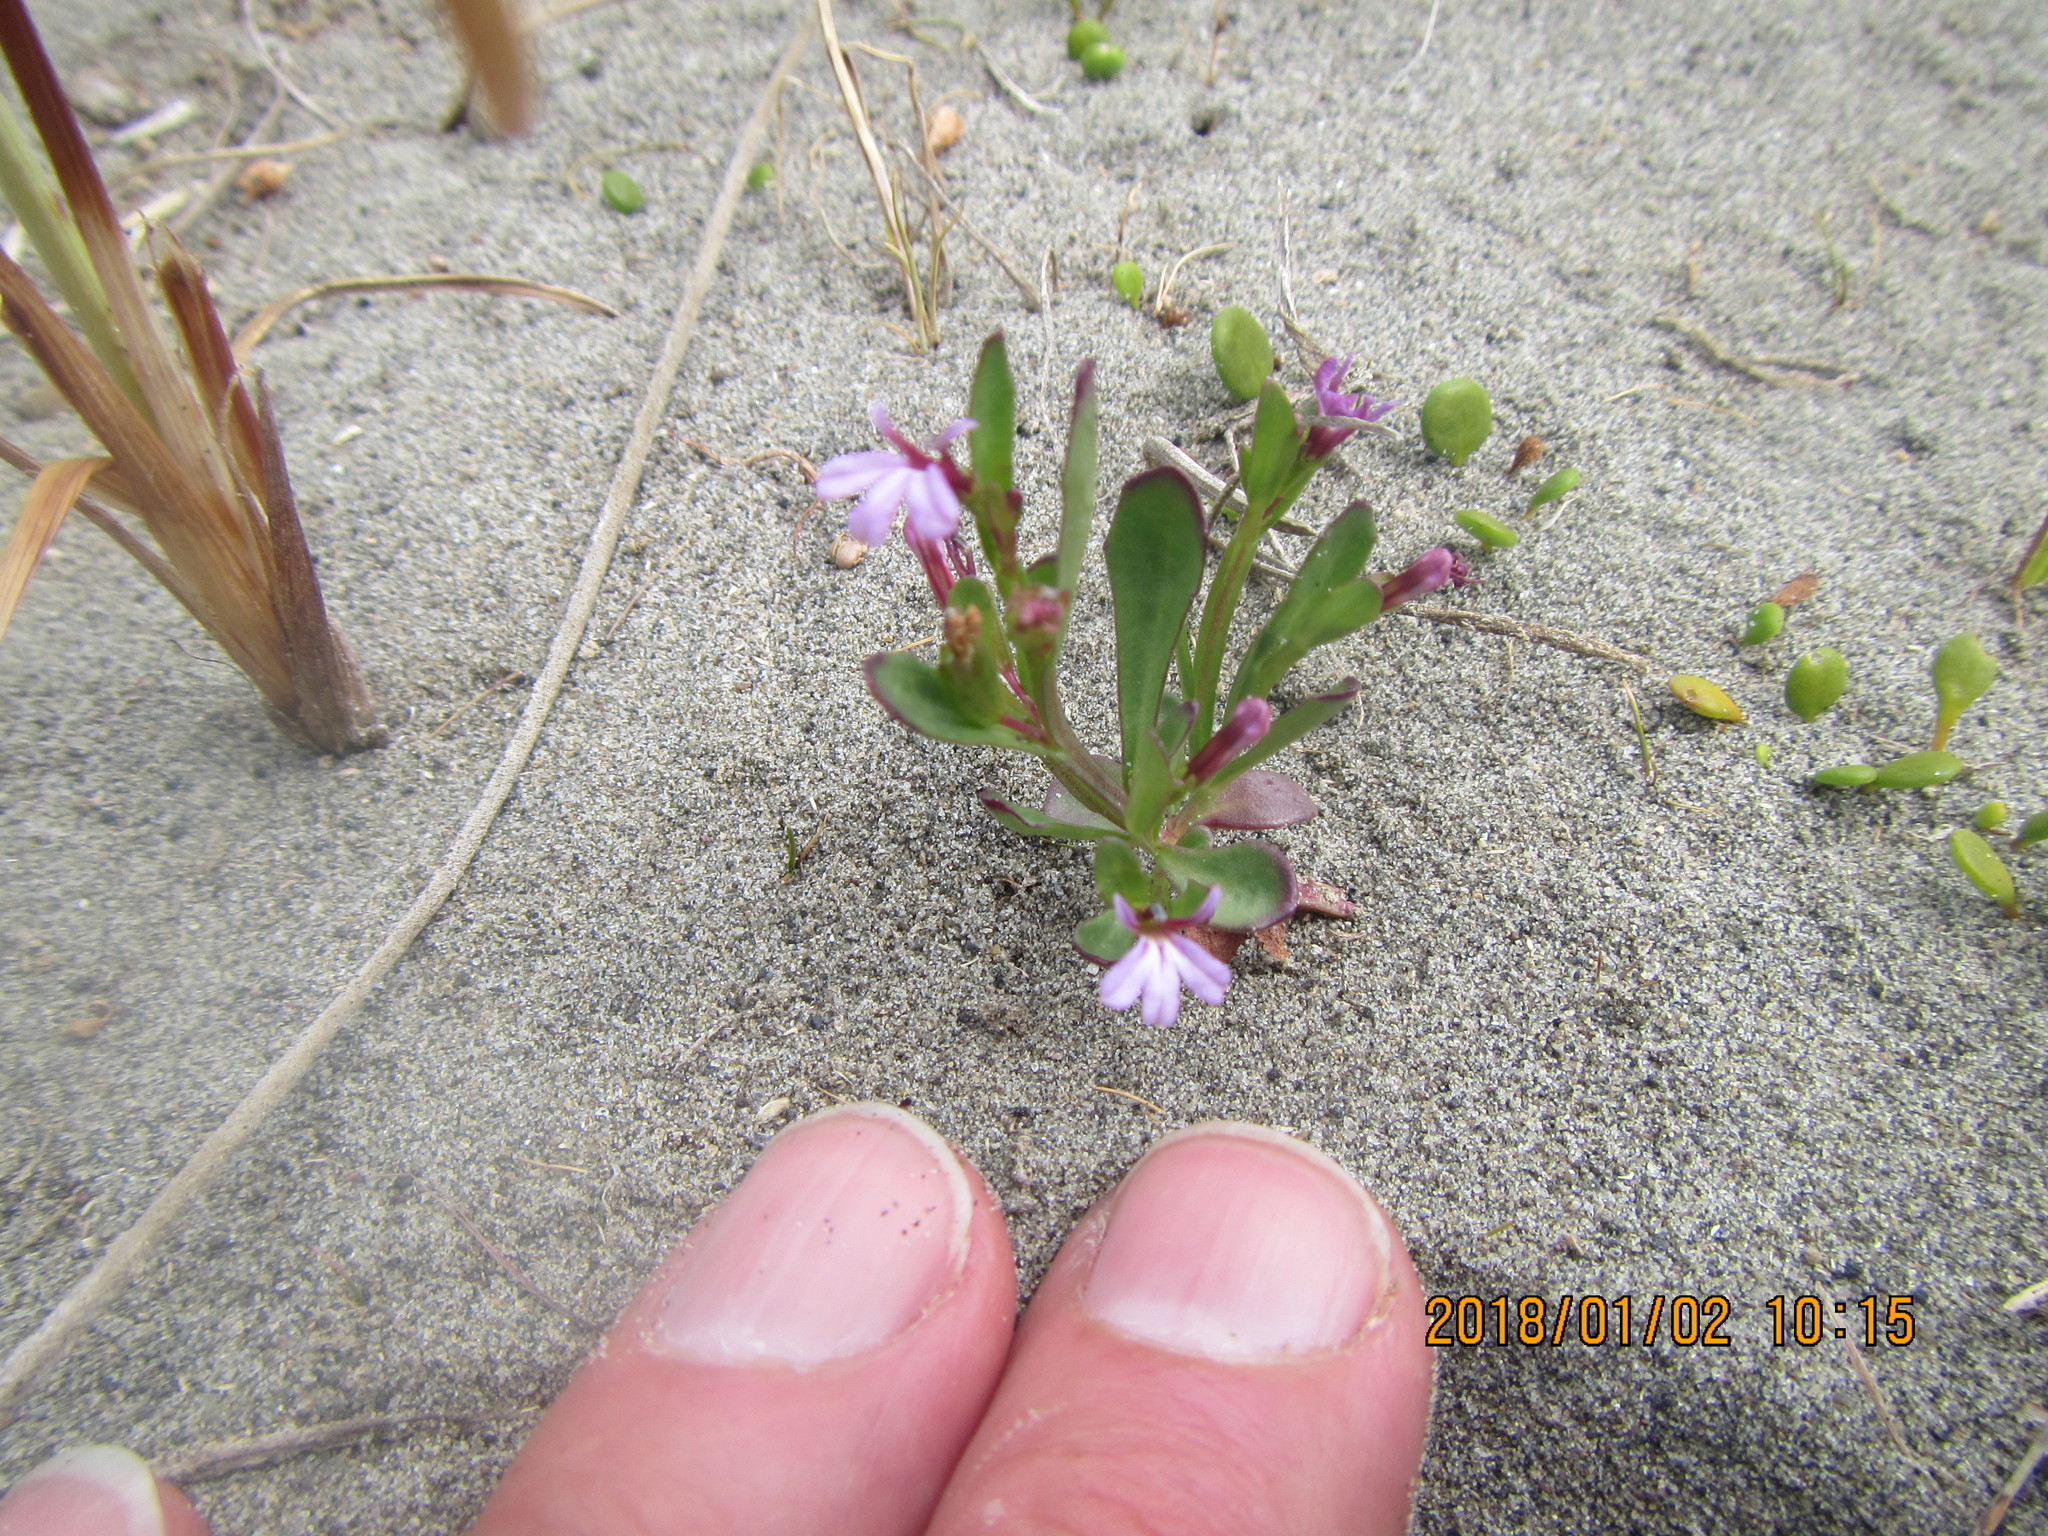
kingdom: Plantae
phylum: Tracheophyta
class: Magnoliopsida
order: Asterales
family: Campanulaceae
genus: Lobelia
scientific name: Lobelia anceps
